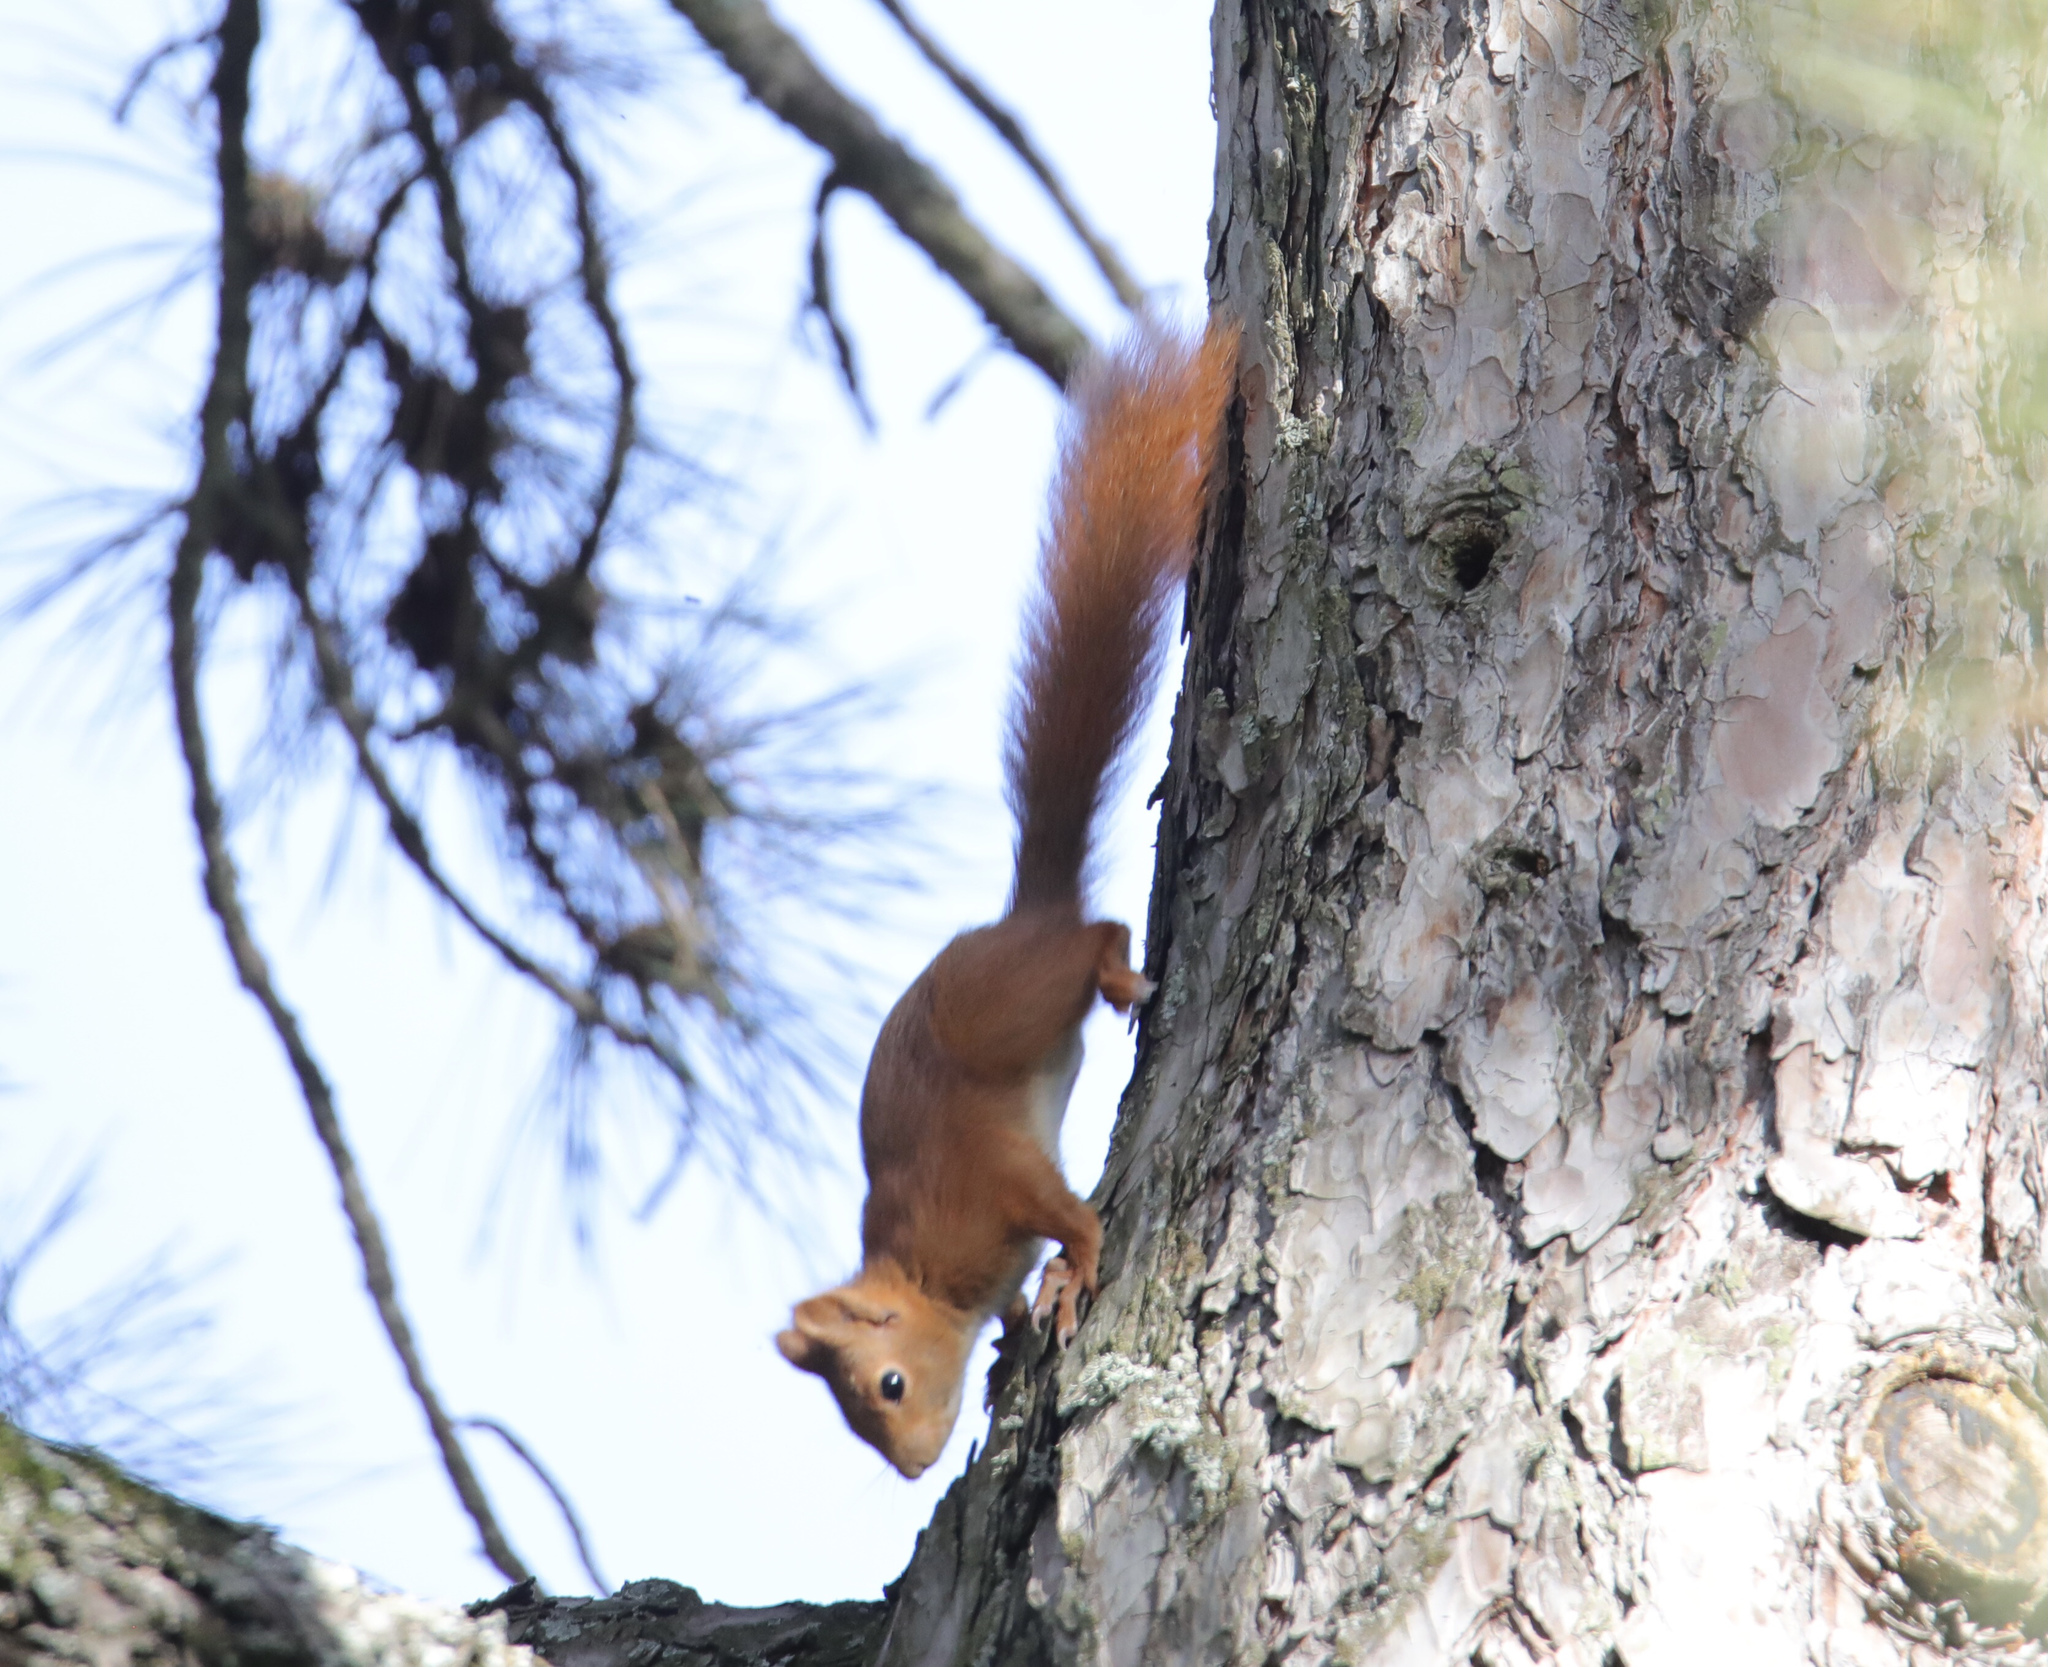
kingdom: Animalia
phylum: Chordata
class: Mammalia
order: Rodentia
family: Sciuridae
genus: Sciurus
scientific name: Sciurus vulgaris
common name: Eurasian red squirrel
